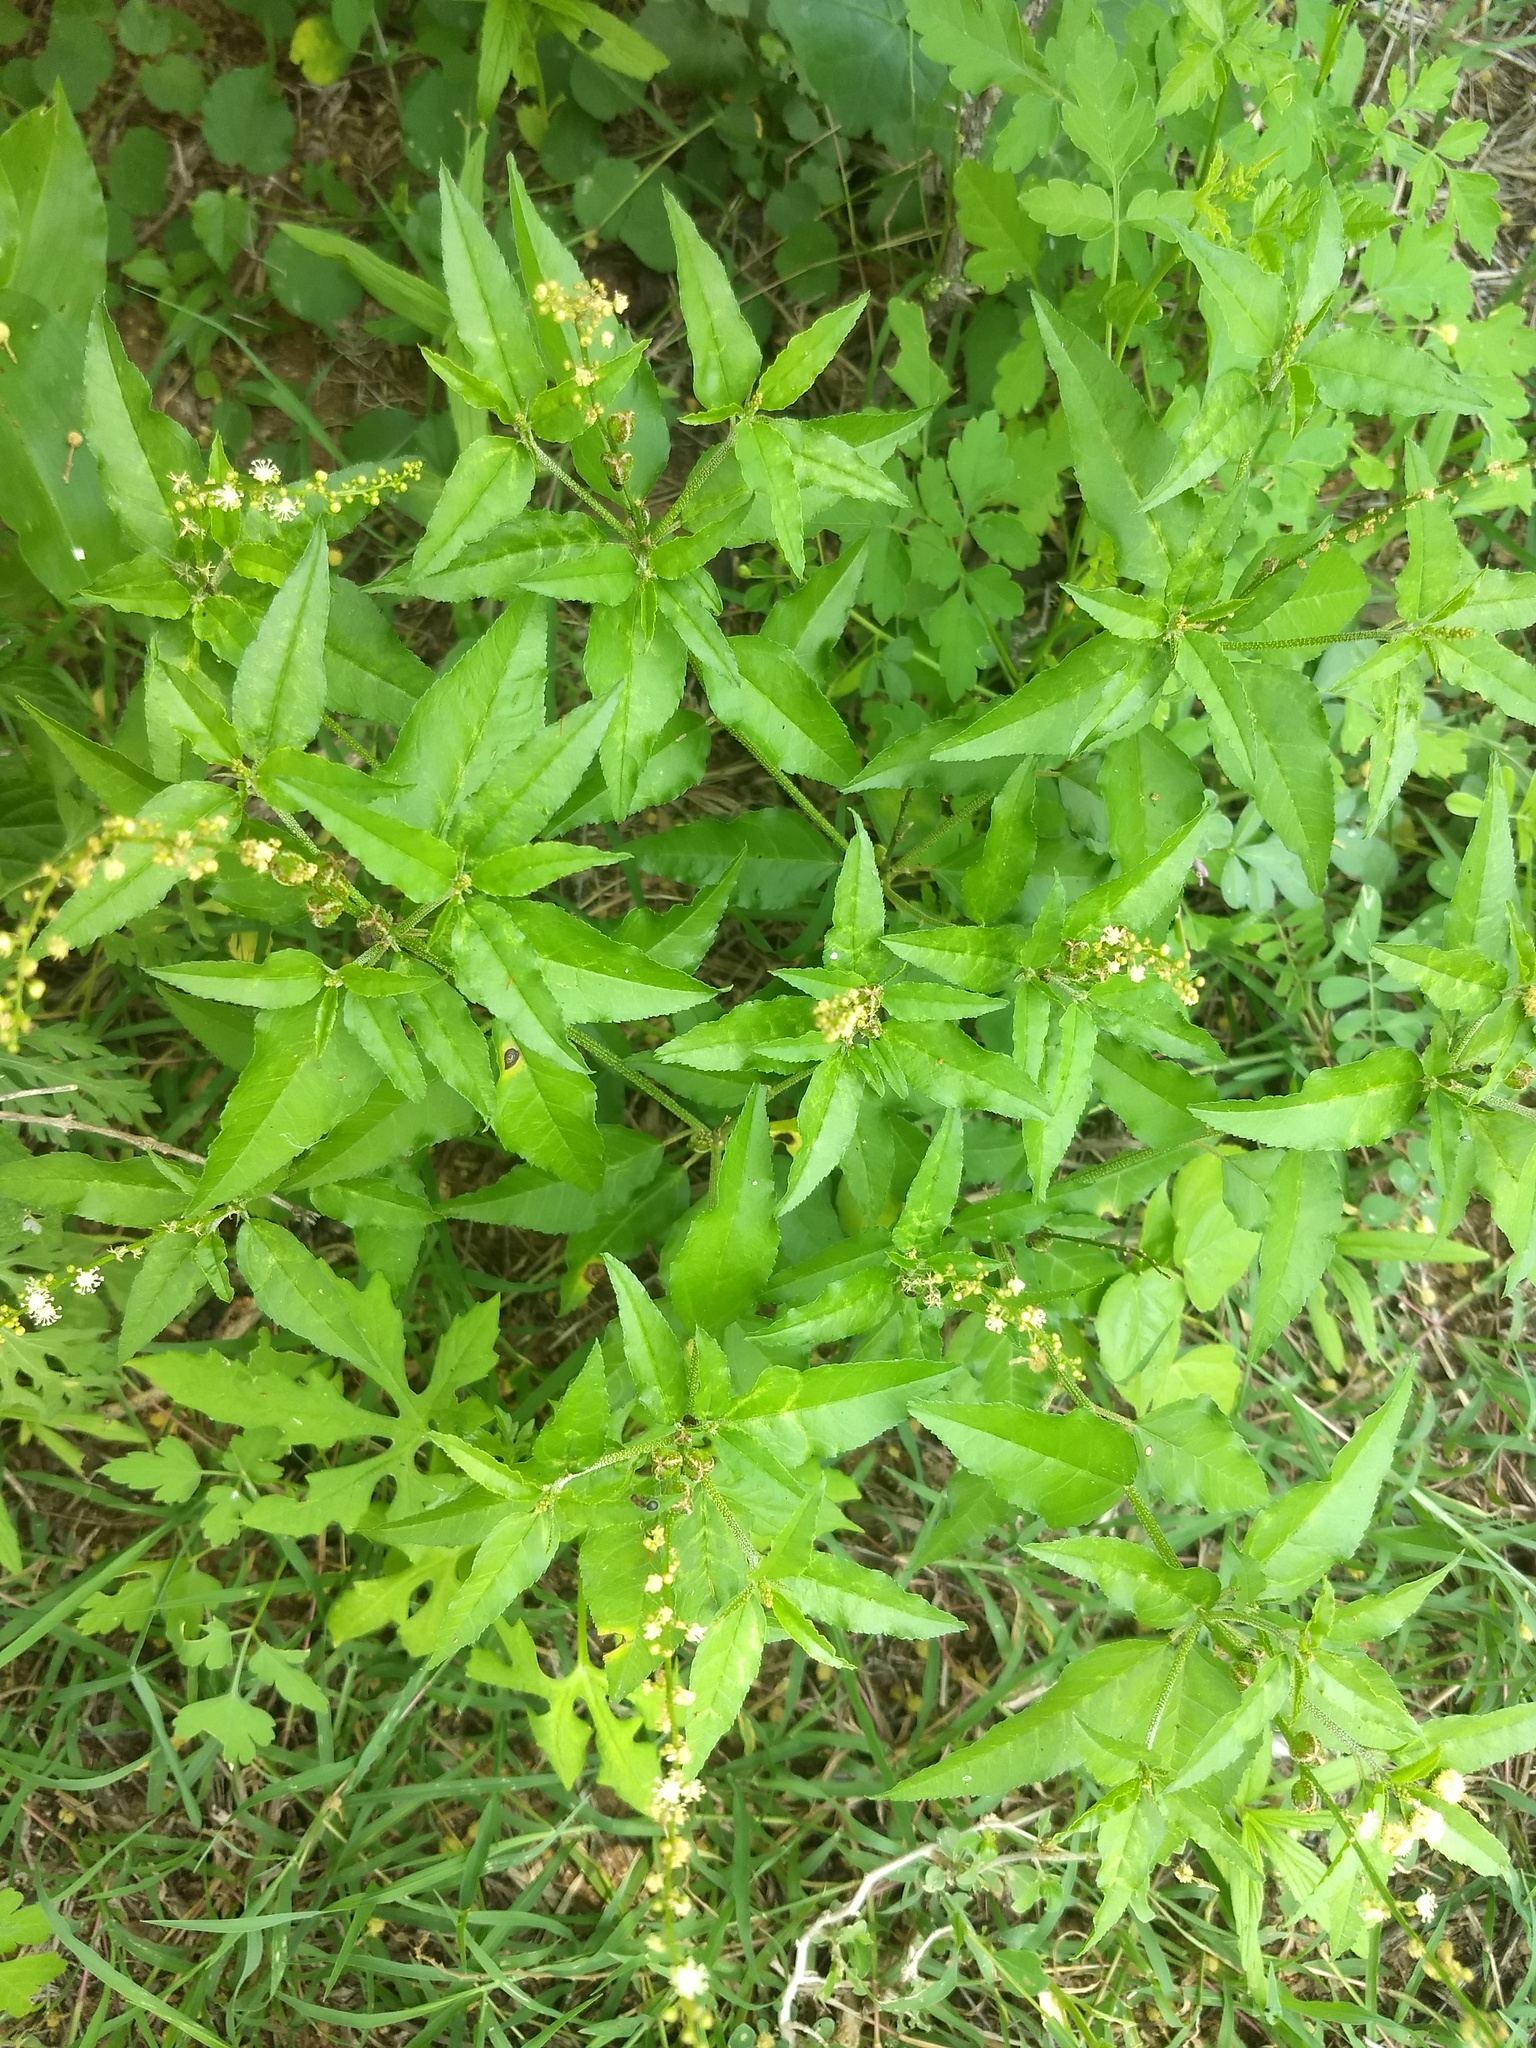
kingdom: Plantae
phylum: Tracheophyta
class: Magnoliopsida
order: Malpighiales
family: Euphorbiaceae
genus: Croton
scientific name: Croton bonplandianus
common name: Bonpland's croton
